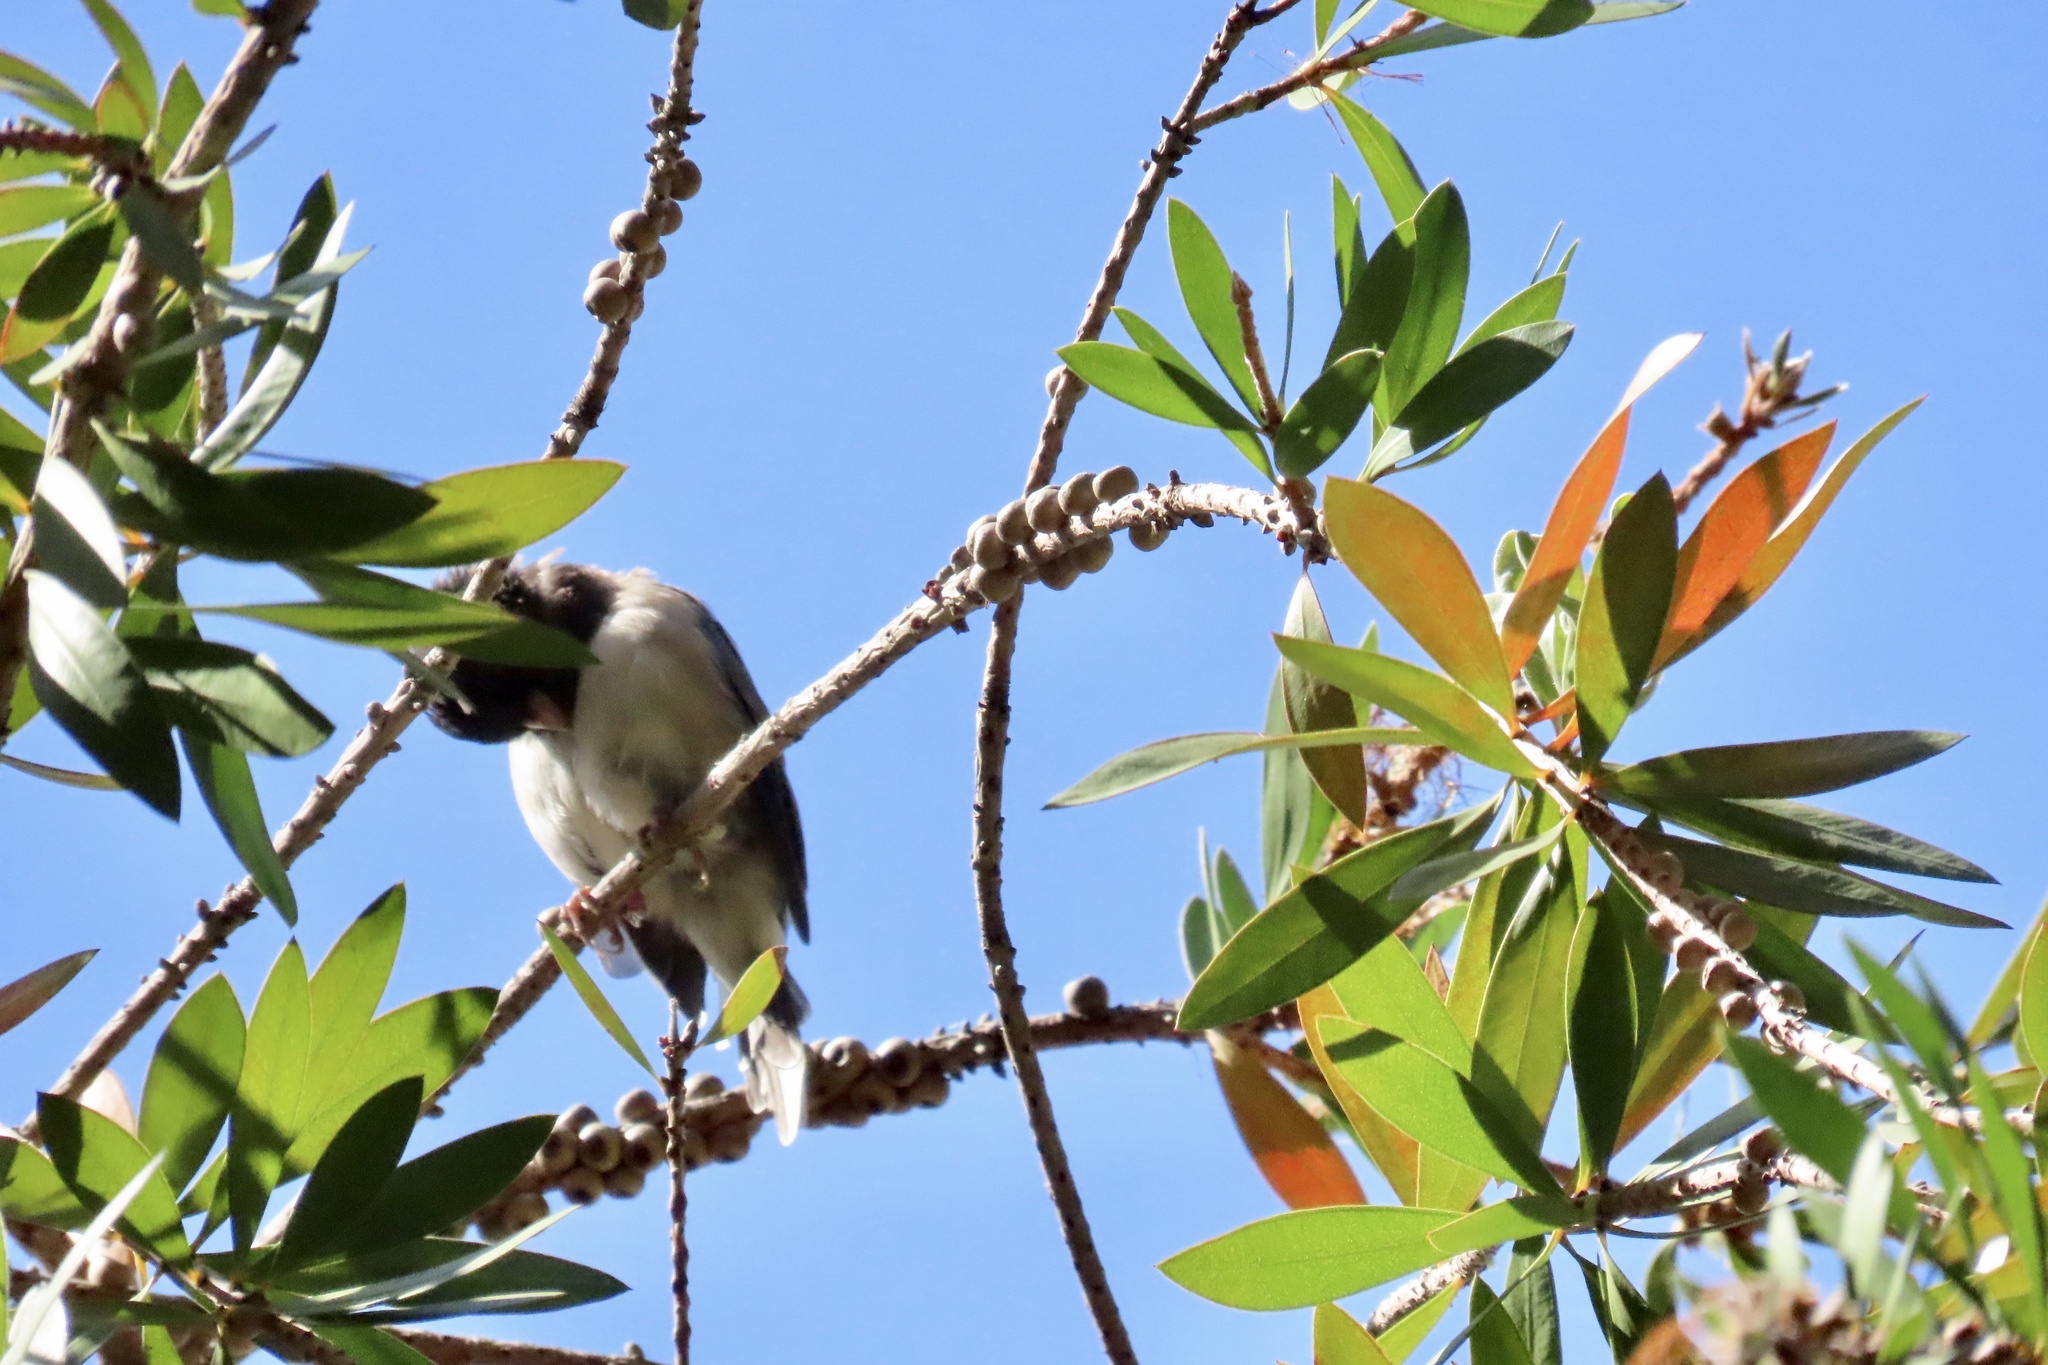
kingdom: Animalia
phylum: Chordata
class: Aves
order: Passeriformes
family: Passerellidae
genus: Junco
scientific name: Junco hyemalis
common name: Dark-eyed junco
